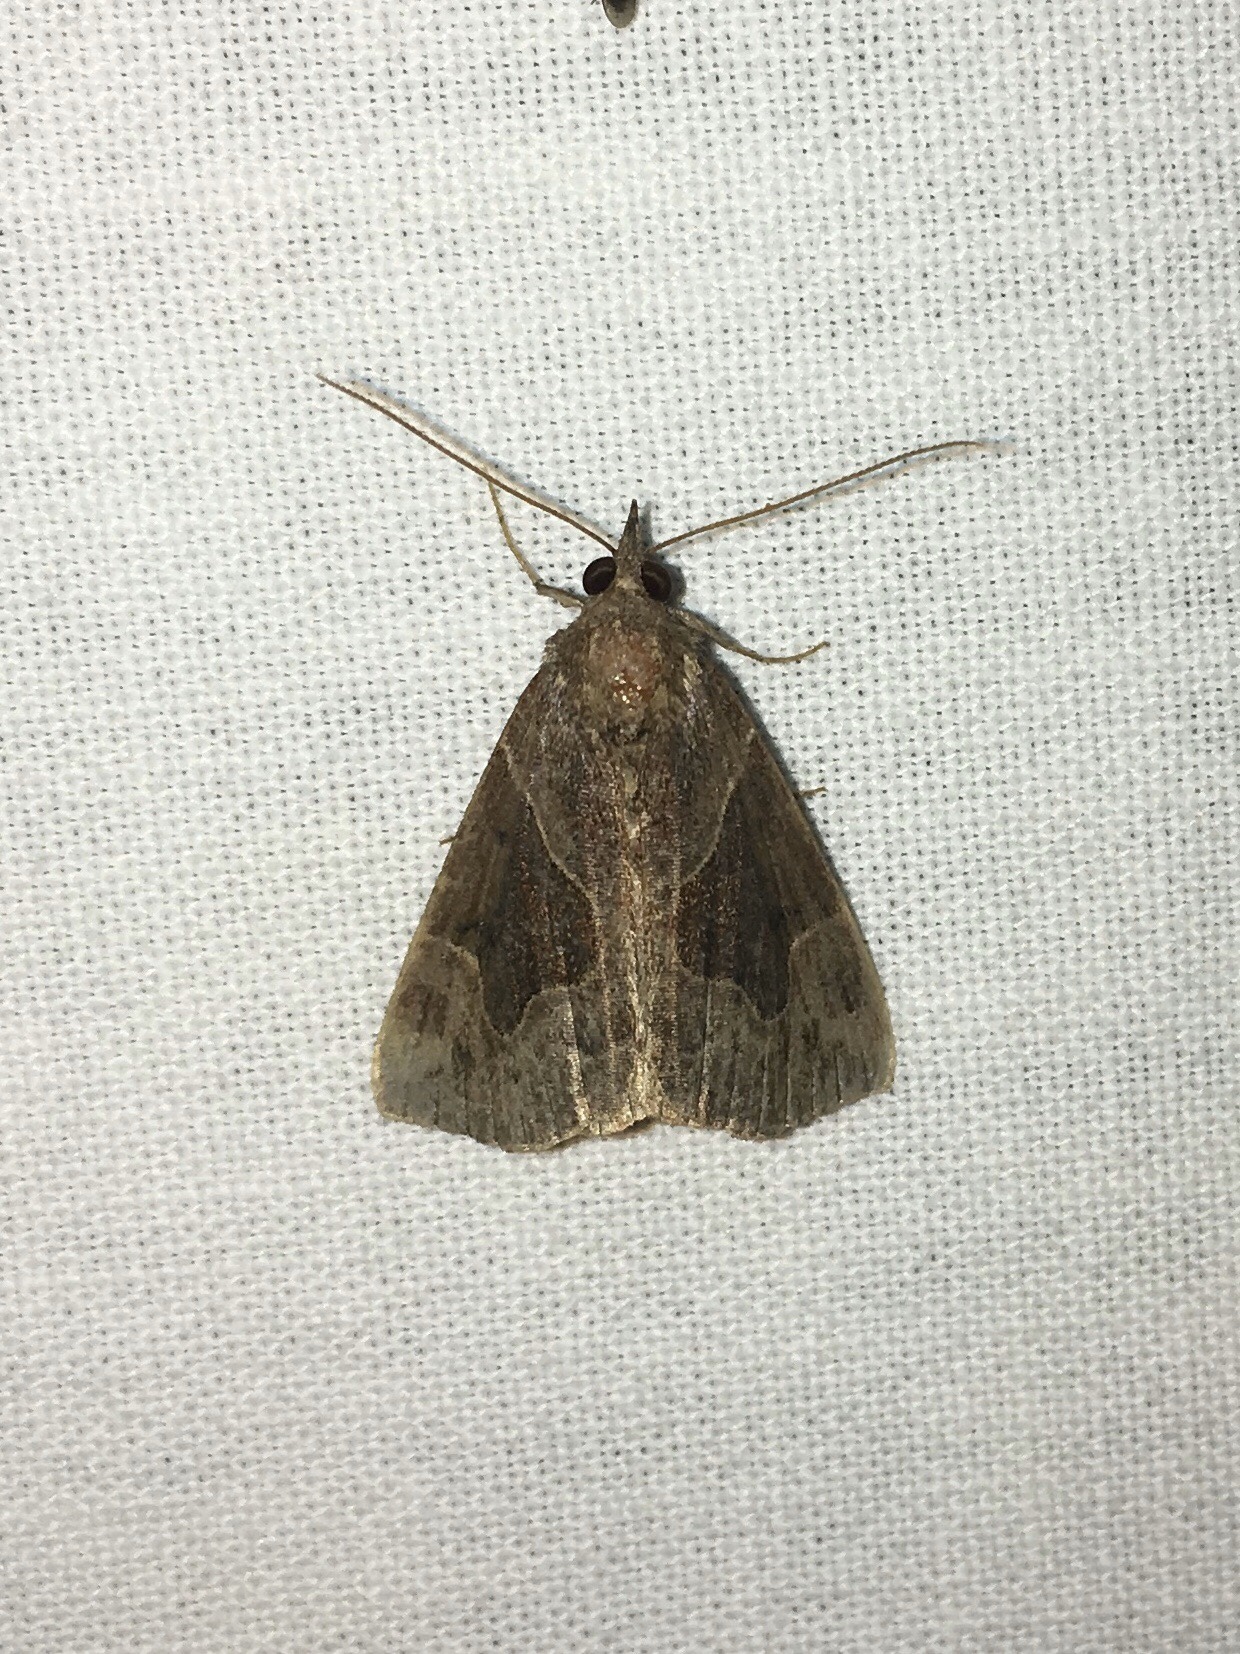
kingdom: Animalia
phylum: Arthropoda
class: Insecta
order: Lepidoptera
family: Erebidae
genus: Hypena
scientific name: Hypena manalis
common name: Flowing-line bomolocha moth
